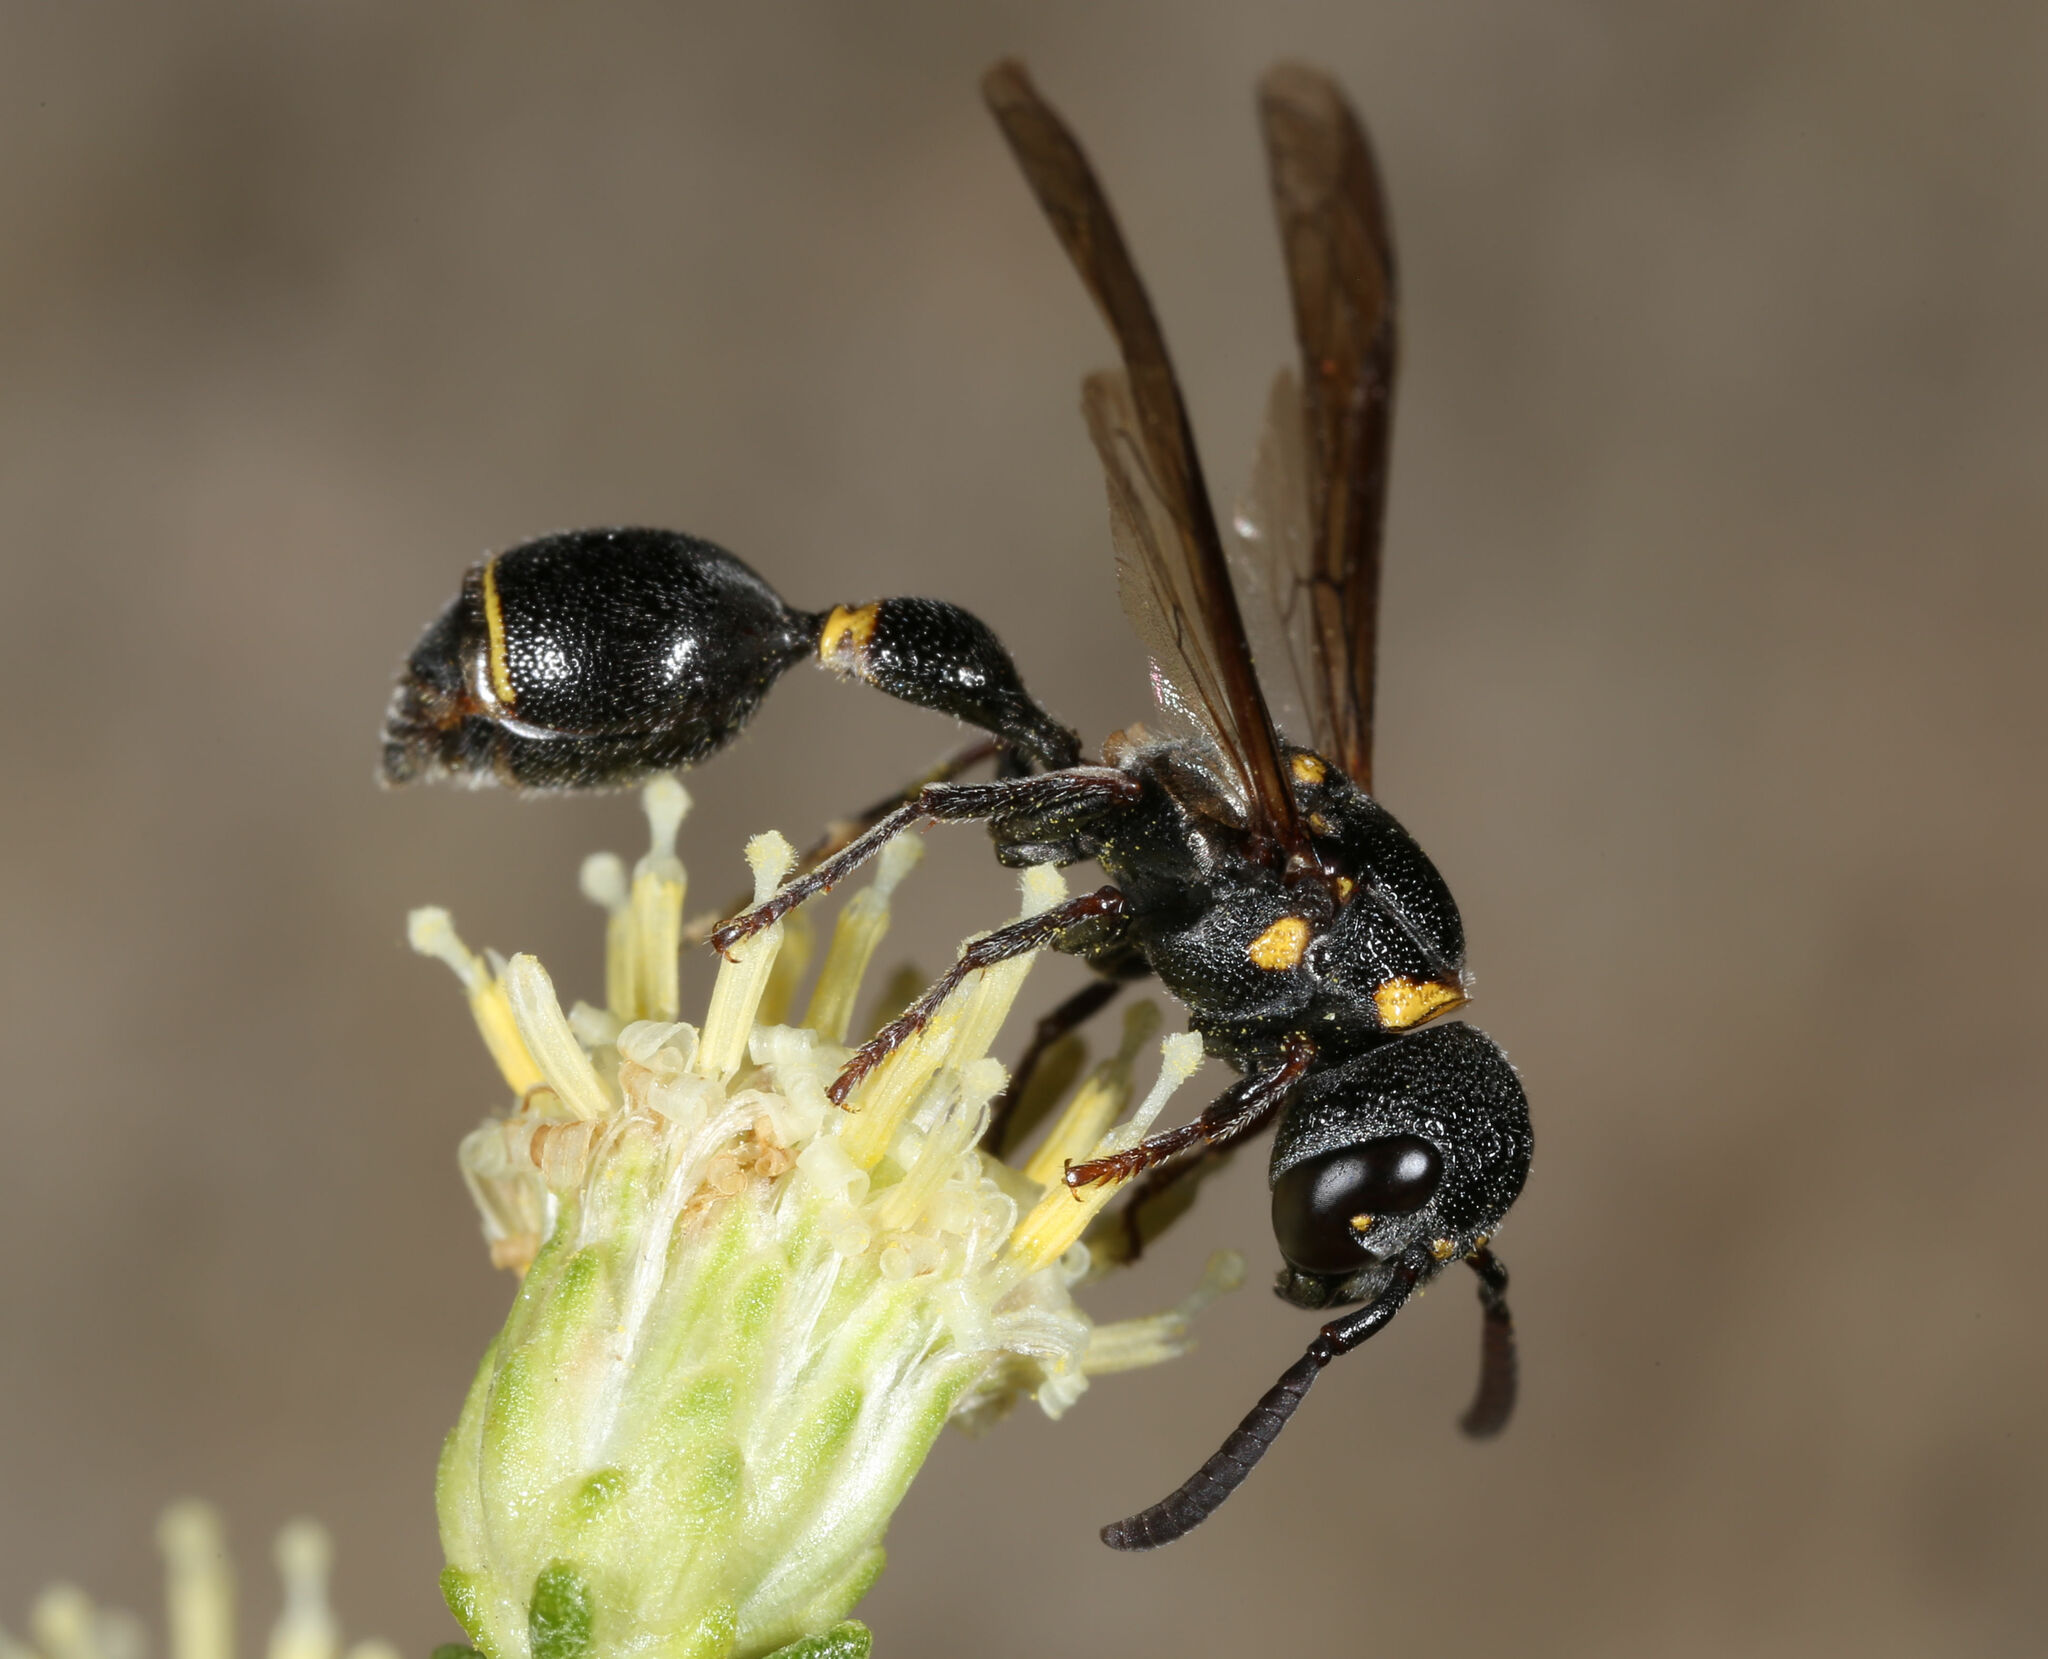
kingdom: Animalia
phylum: Arthropoda
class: Insecta
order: Hymenoptera
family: Eumenidae
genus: Zethus
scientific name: Zethus guerreroi
